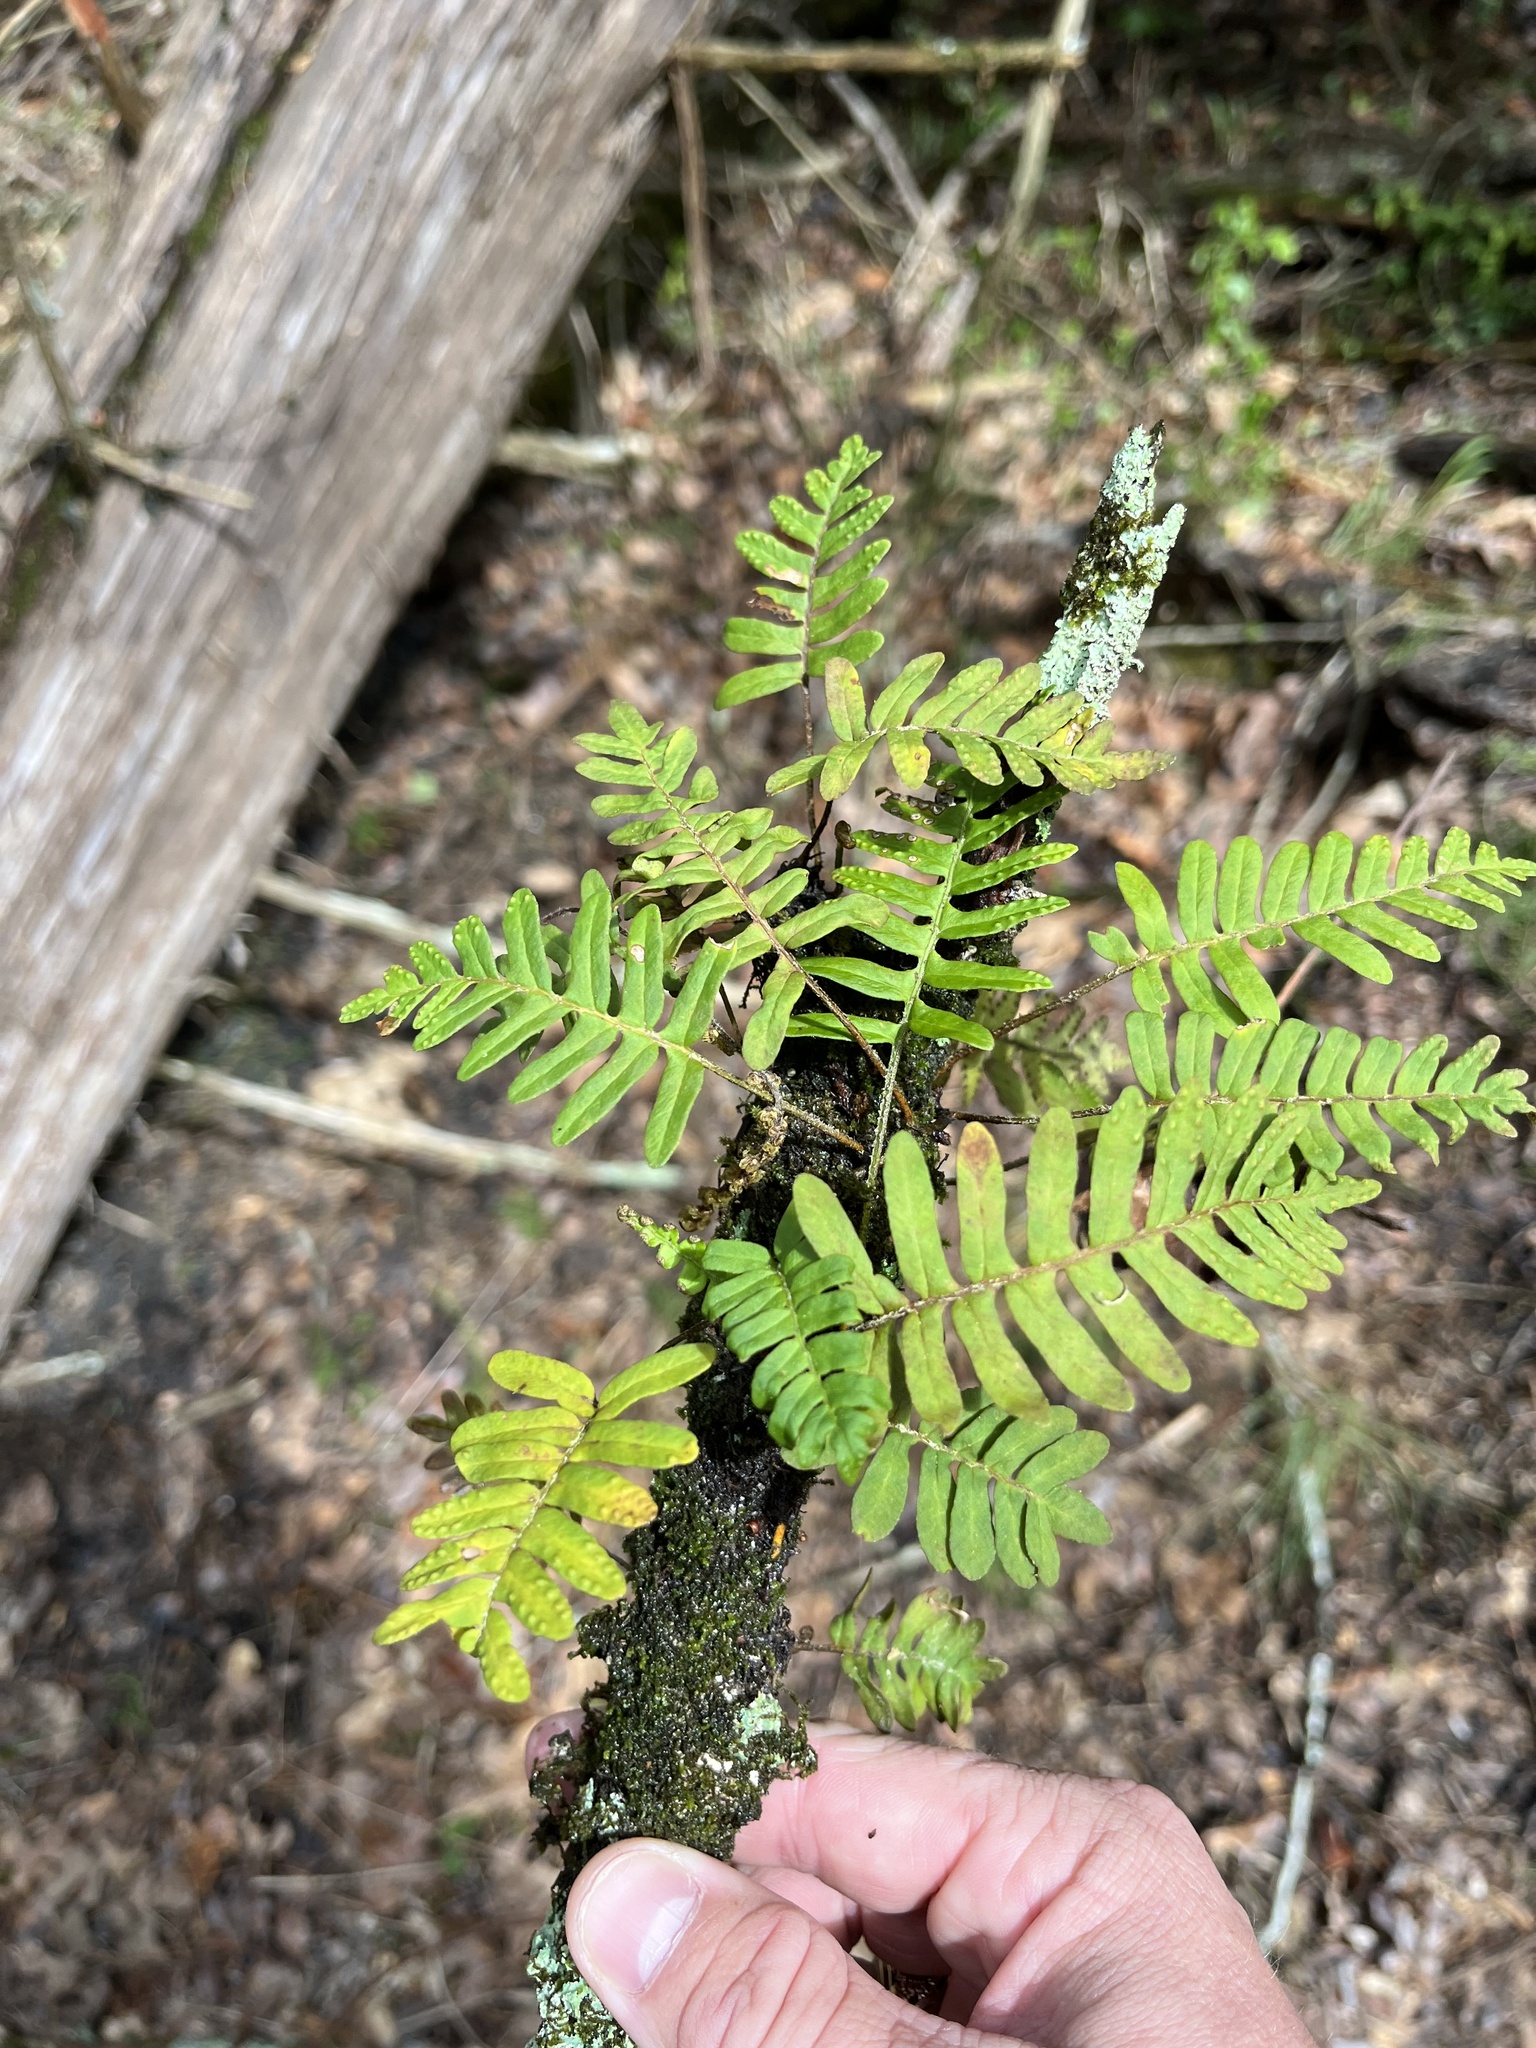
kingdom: Plantae
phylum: Tracheophyta
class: Polypodiopsida
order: Polypodiales
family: Polypodiaceae
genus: Pleopeltis
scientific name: Pleopeltis michauxiana
